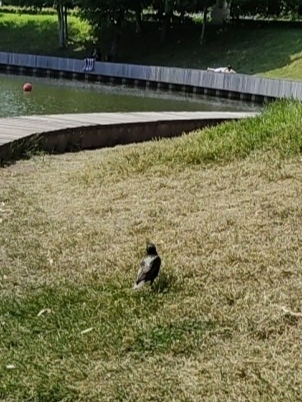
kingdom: Animalia
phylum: Chordata
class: Aves
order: Passeriformes
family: Sturnidae
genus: Sturnus
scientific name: Sturnus vulgaris
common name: Common starling
